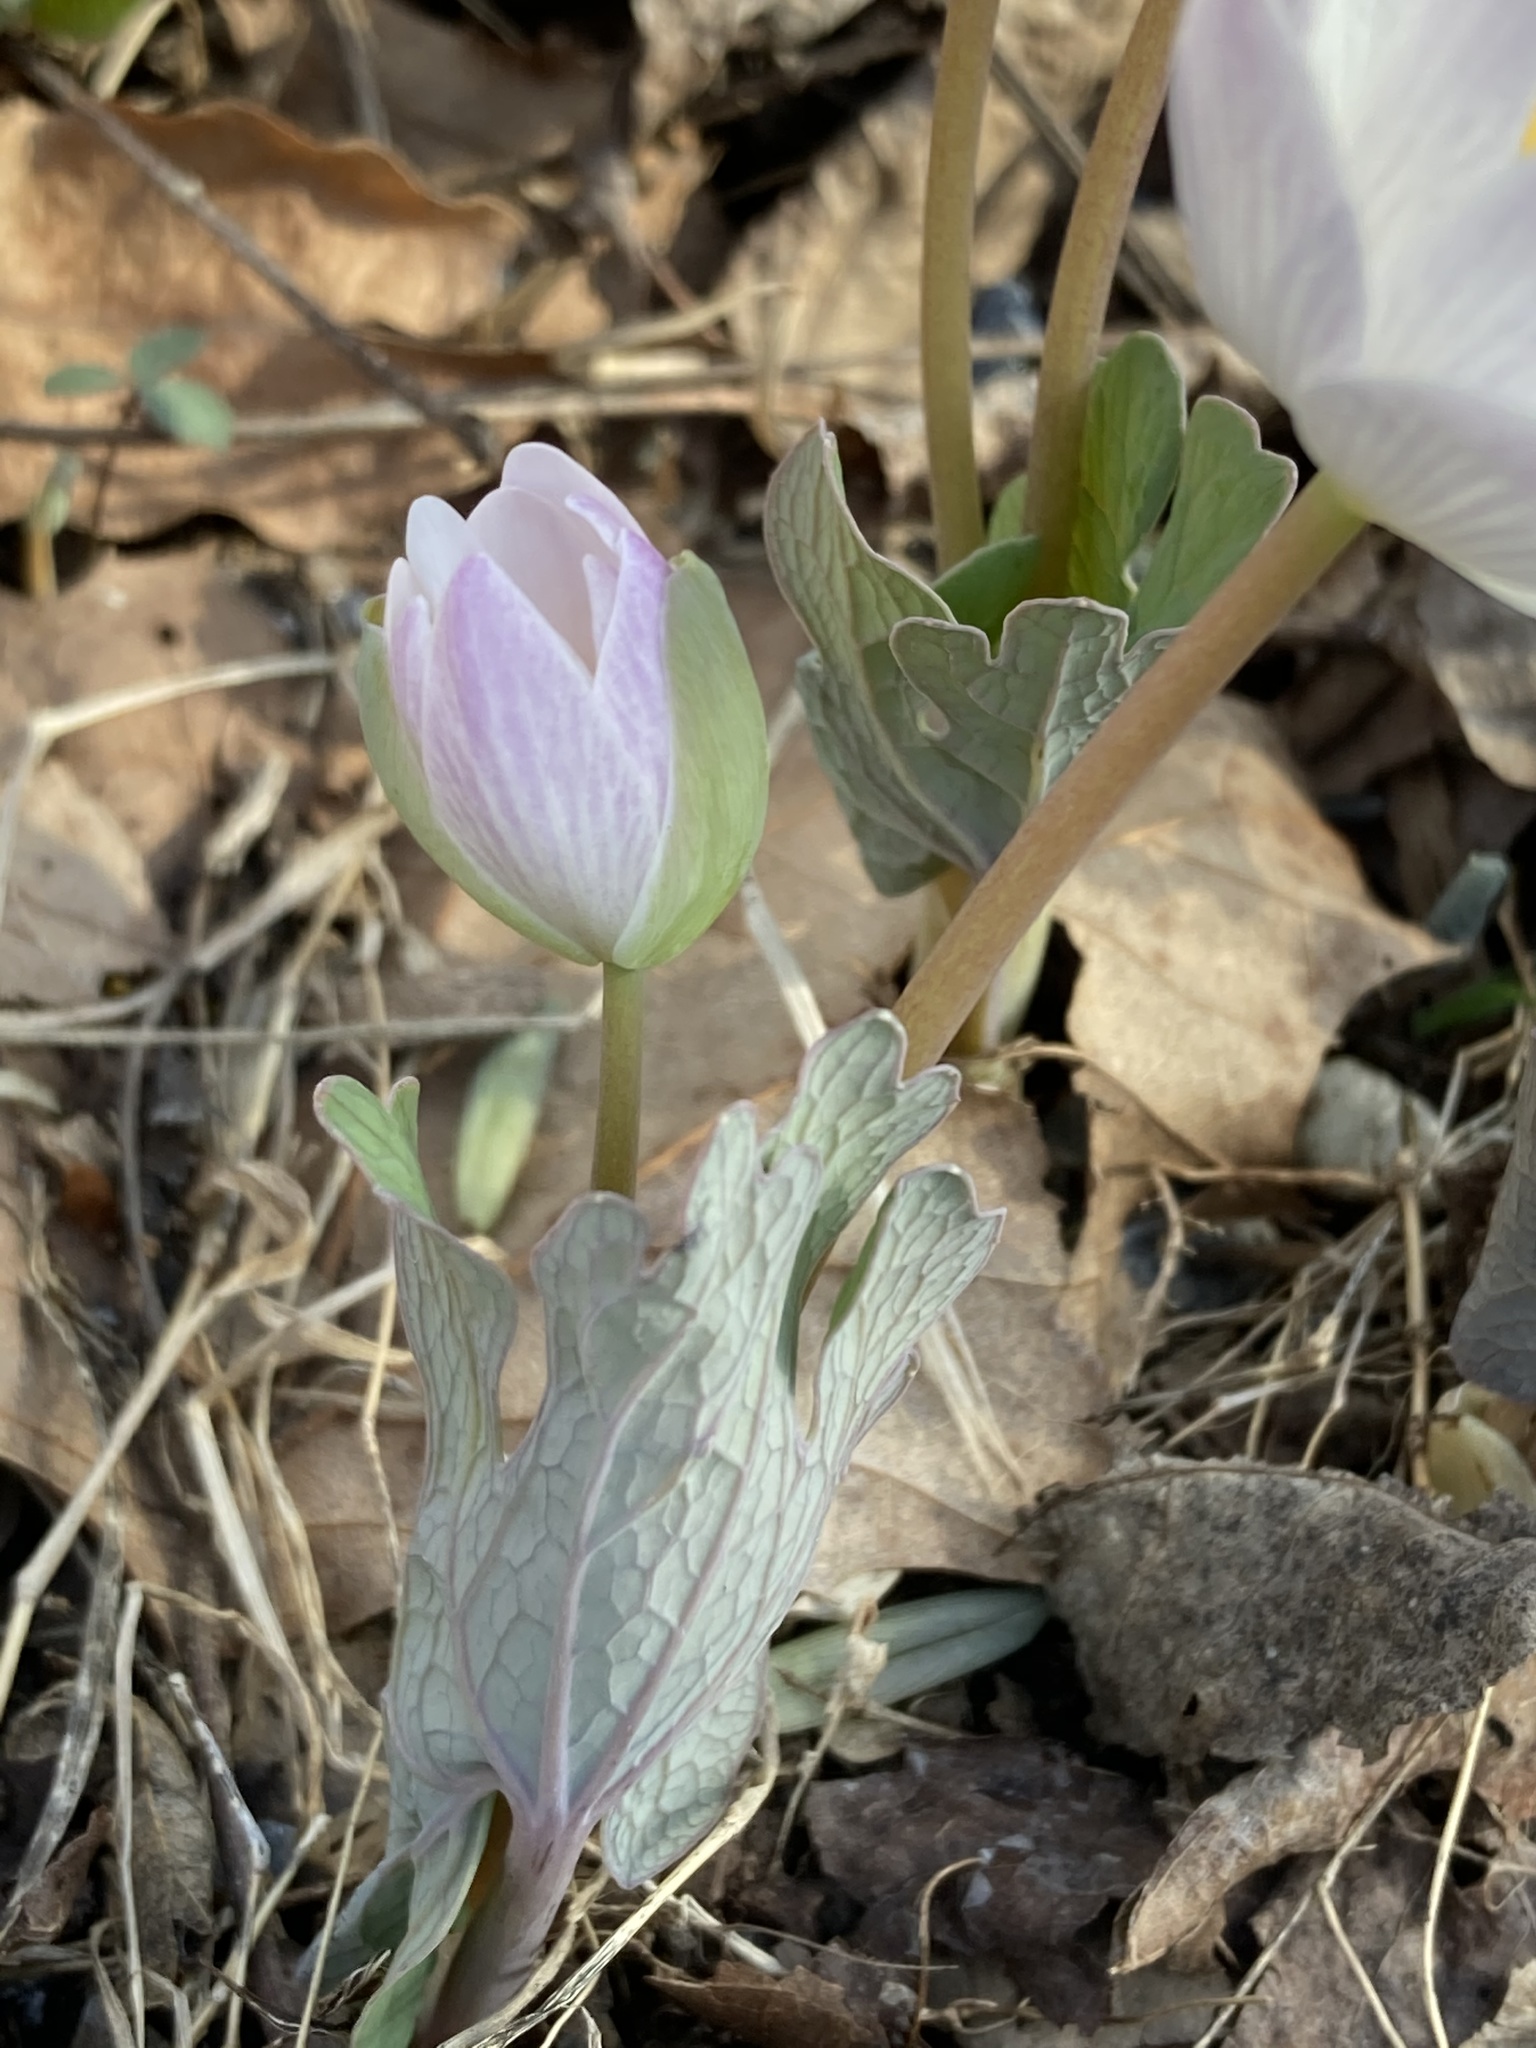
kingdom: Plantae
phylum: Tracheophyta
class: Magnoliopsida
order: Ranunculales
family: Papaveraceae
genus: Sanguinaria
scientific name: Sanguinaria canadensis
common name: Bloodroot
